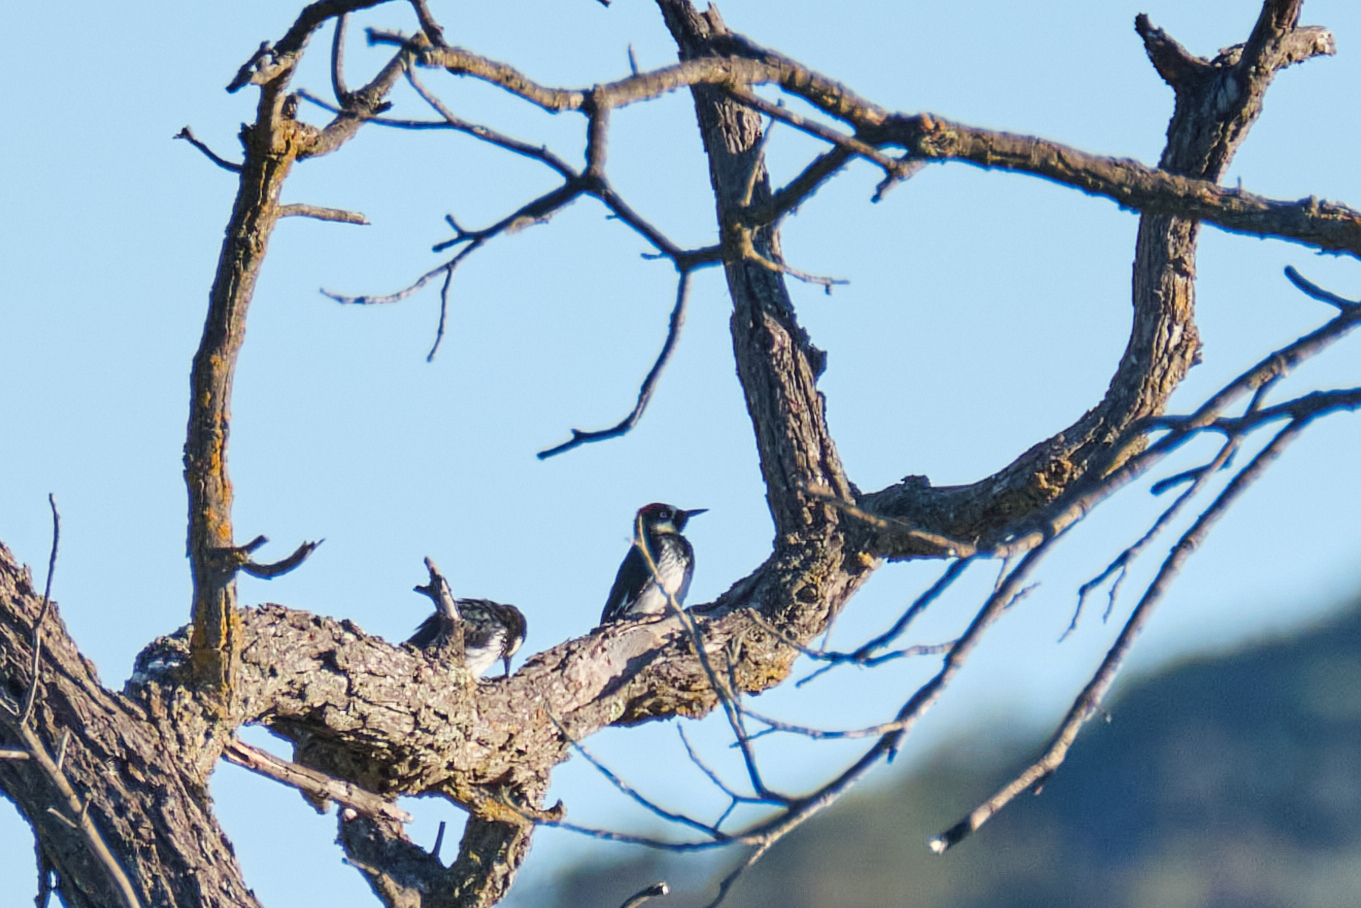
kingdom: Animalia
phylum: Chordata
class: Aves
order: Piciformes
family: Picidae
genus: Melanerpes
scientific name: Melanerpes formicivorus
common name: Acorn woodpecker
